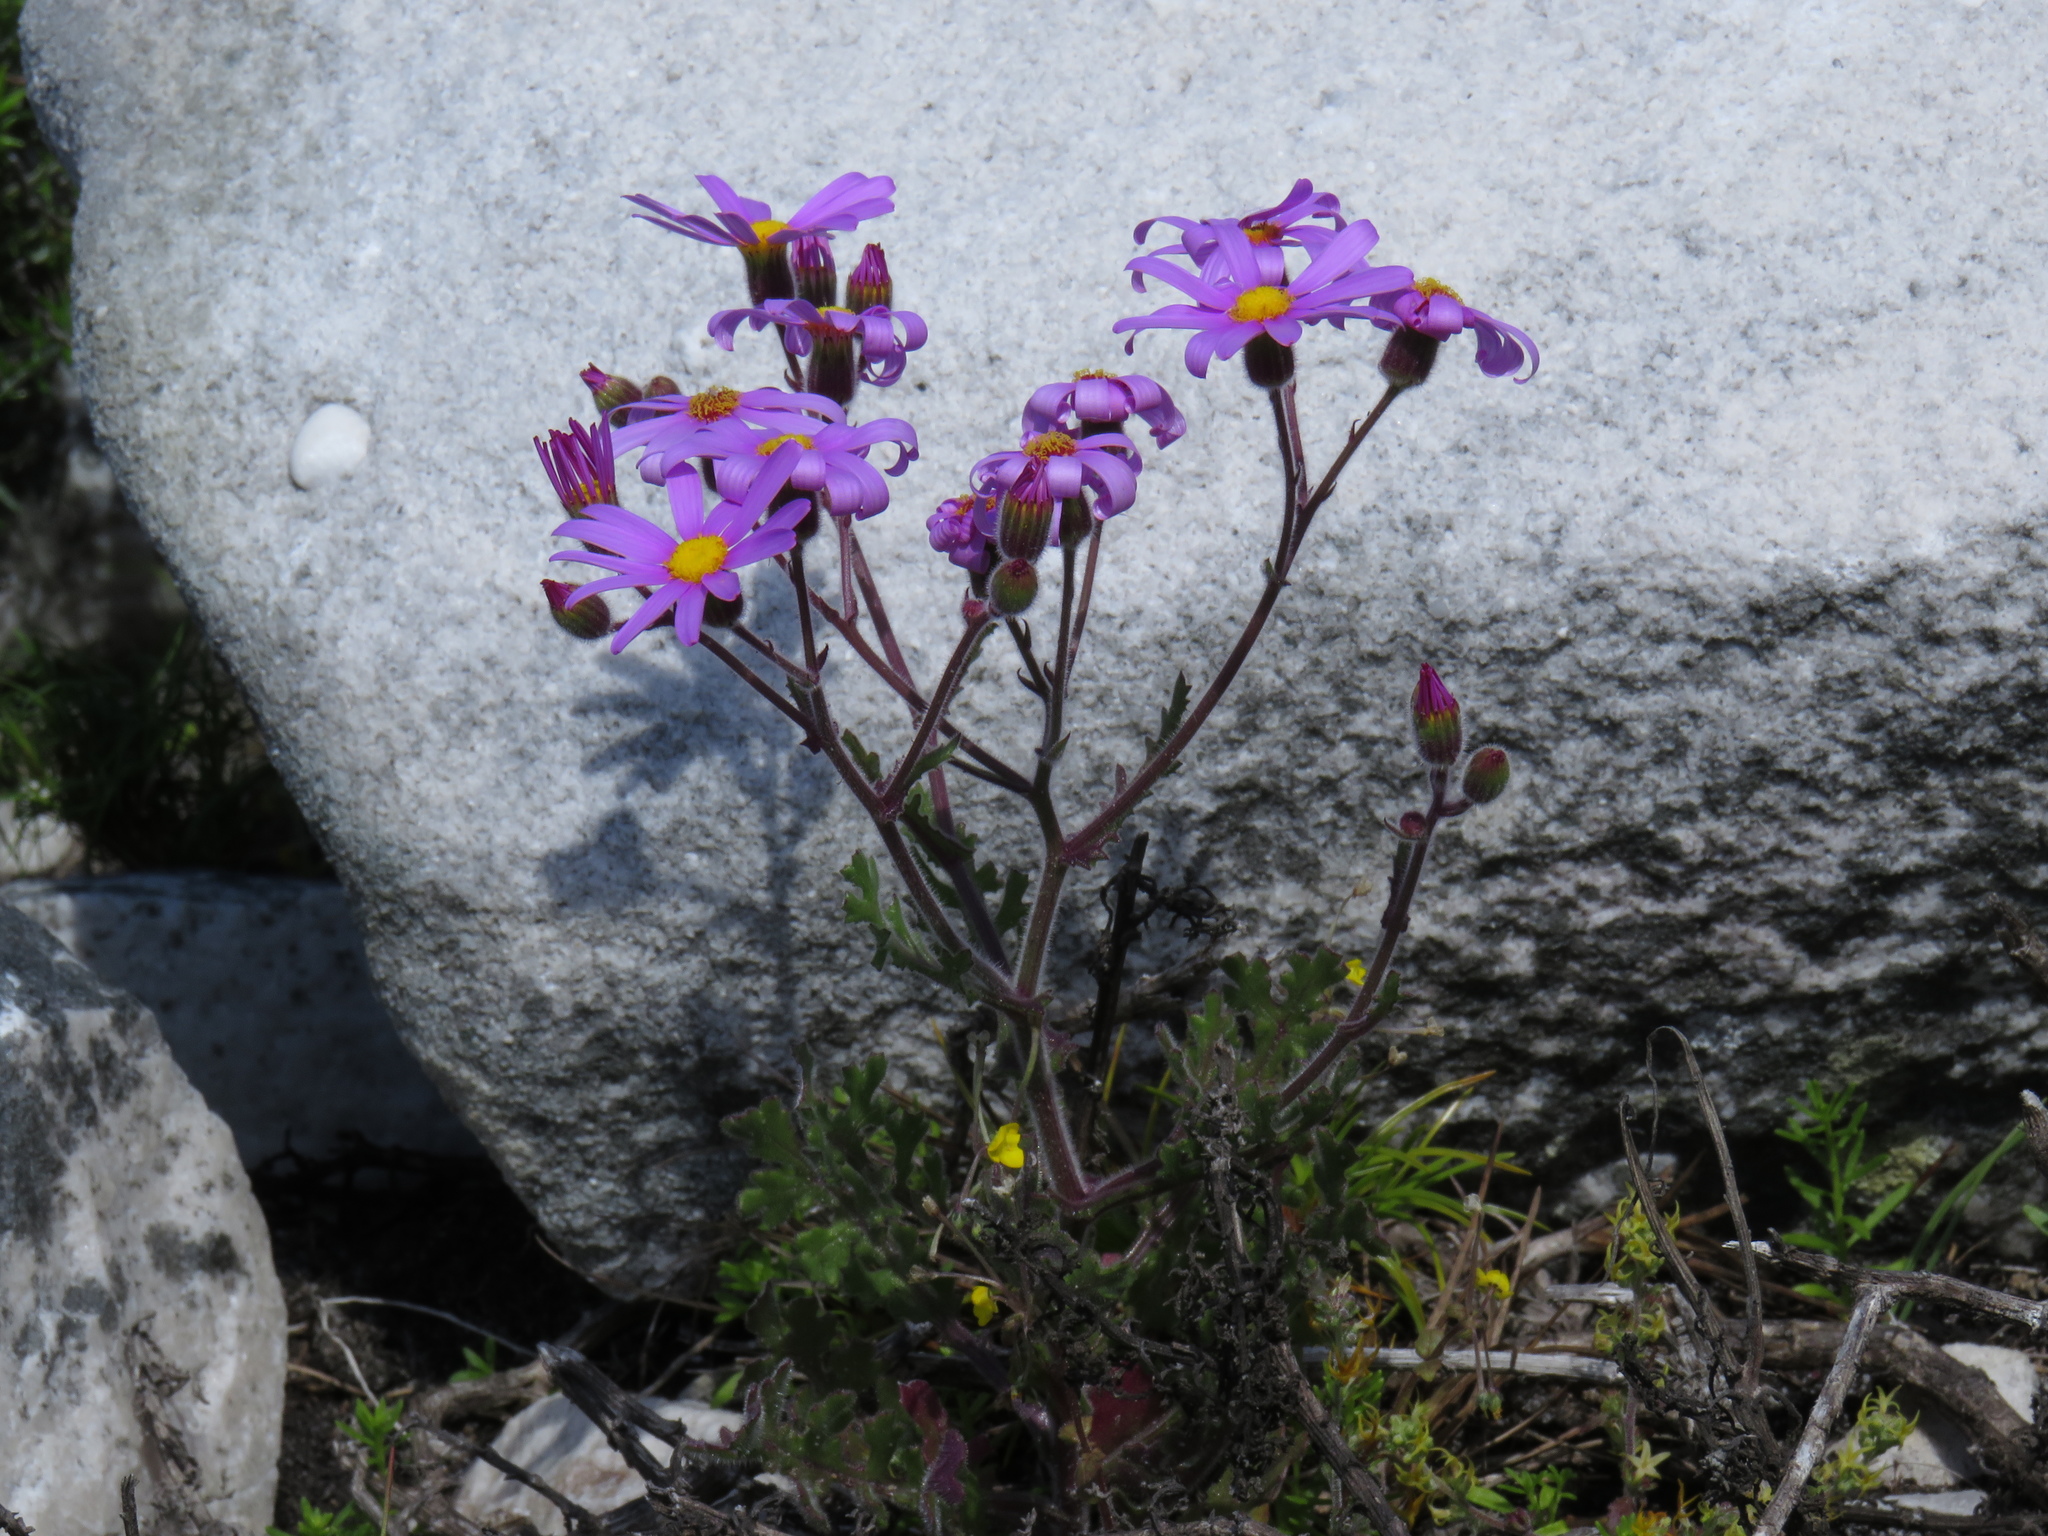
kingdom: Plantae
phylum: Tracheophyta
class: Magnoliopsida
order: Asterales
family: Asteraceae
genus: Senecio
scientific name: Senecio arenarius
